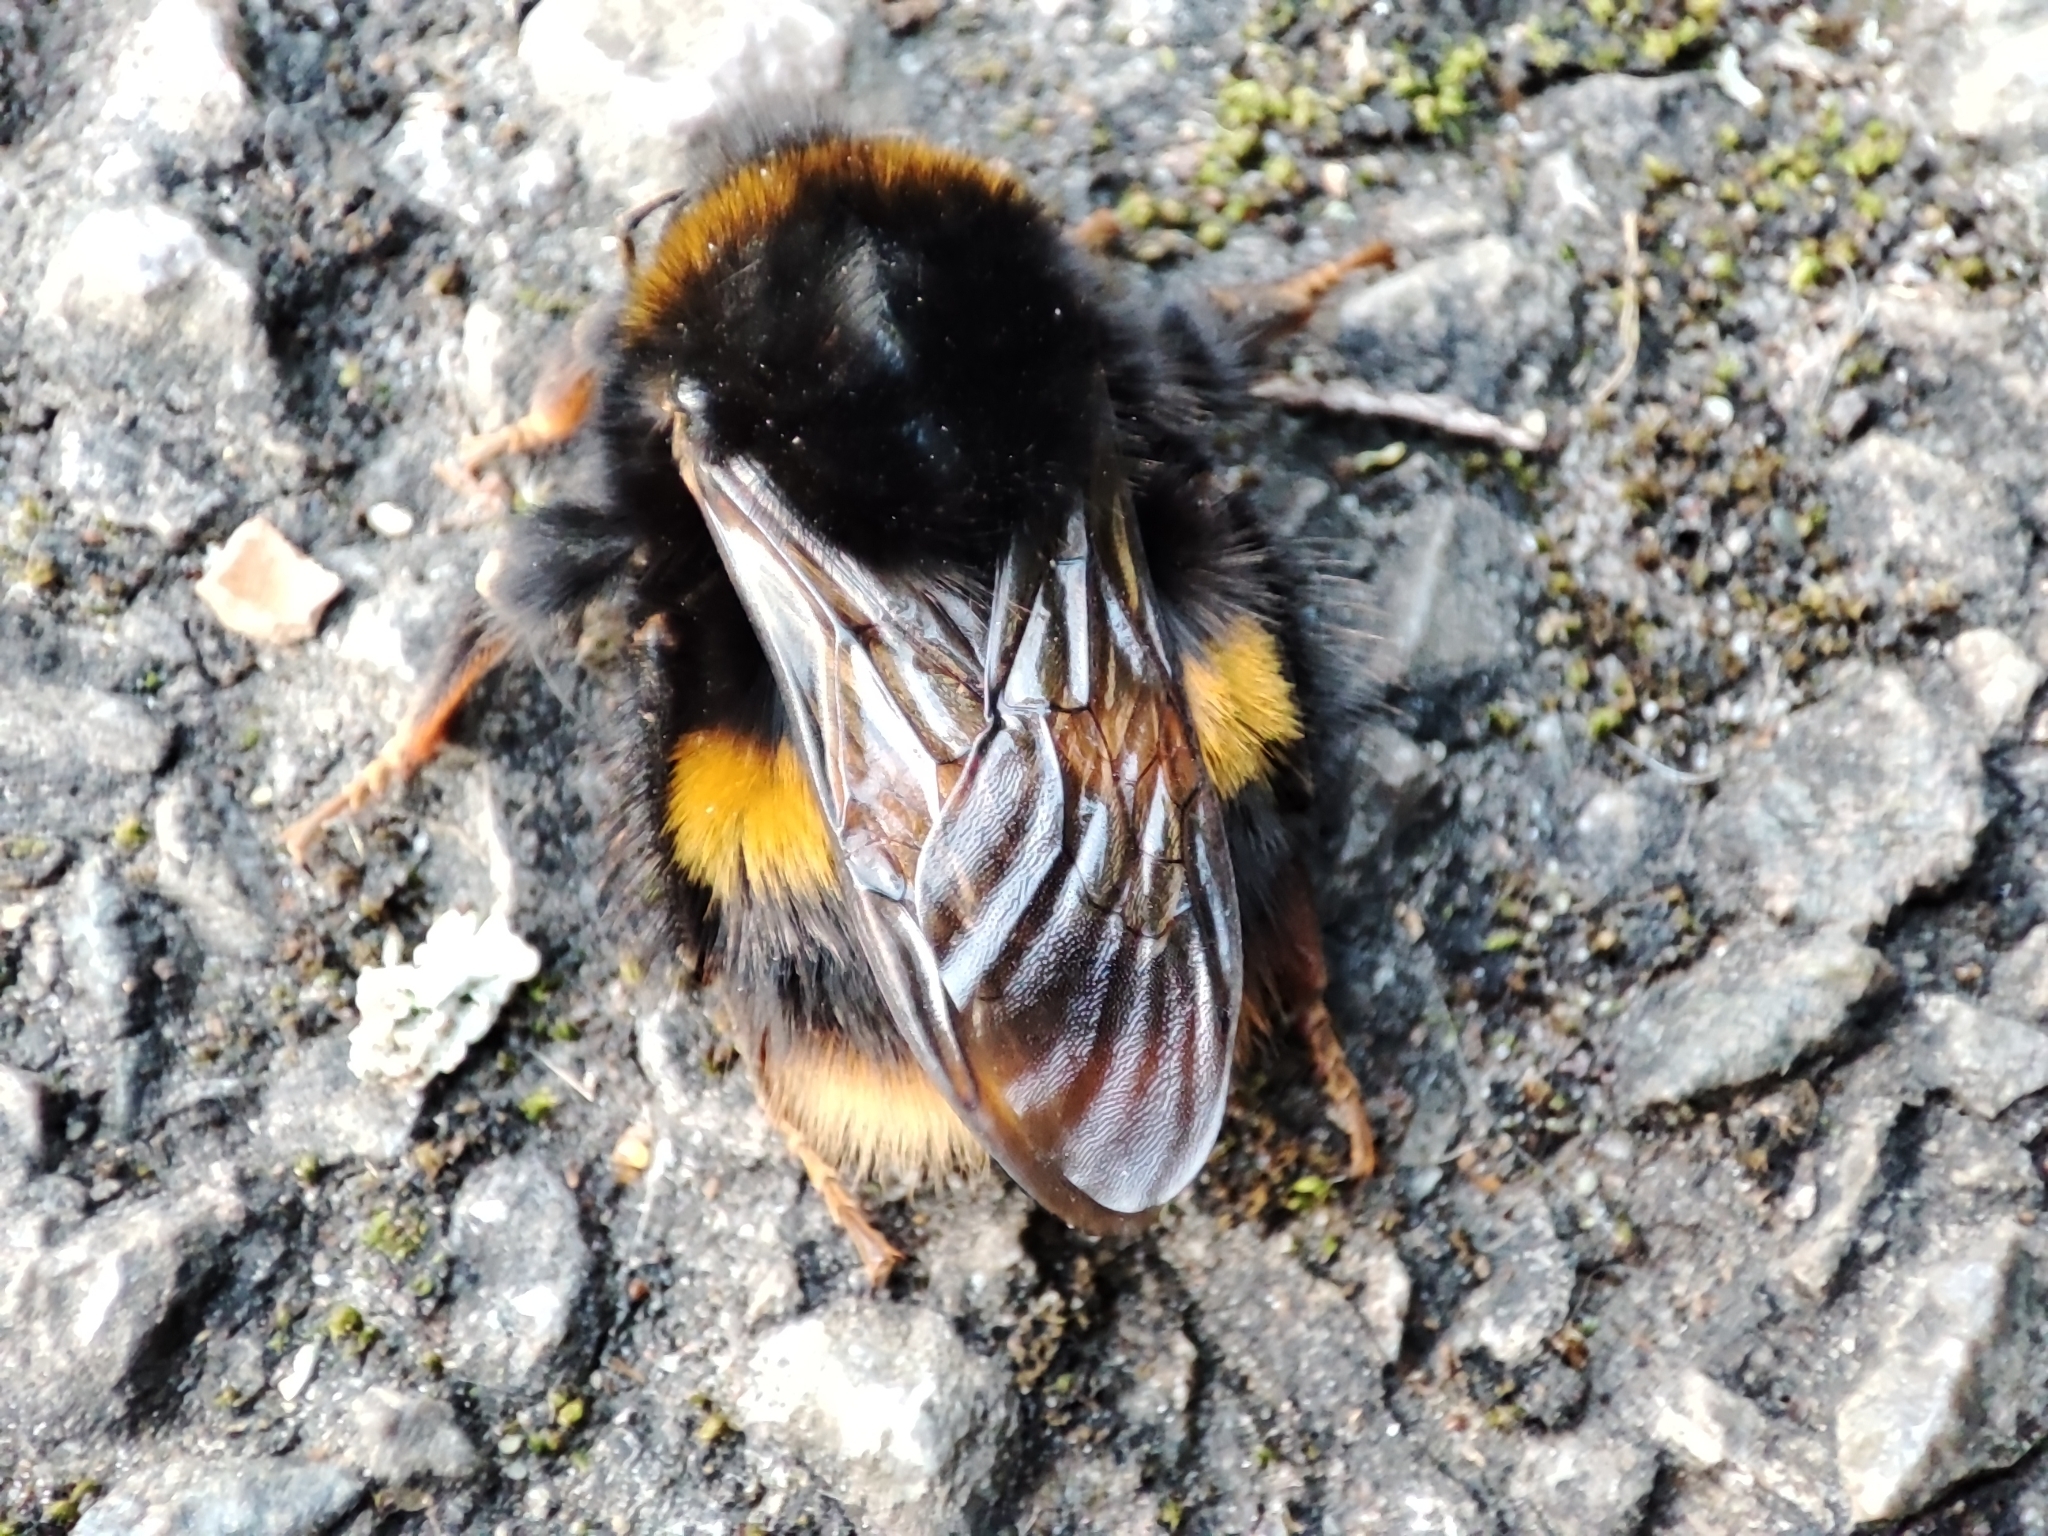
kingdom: Animalia
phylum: Arthropoda
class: Insecta
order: Hymenoptera
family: Apidae
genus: Bombus
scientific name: Bombus terrestris
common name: Buff-tailed bumblebee
